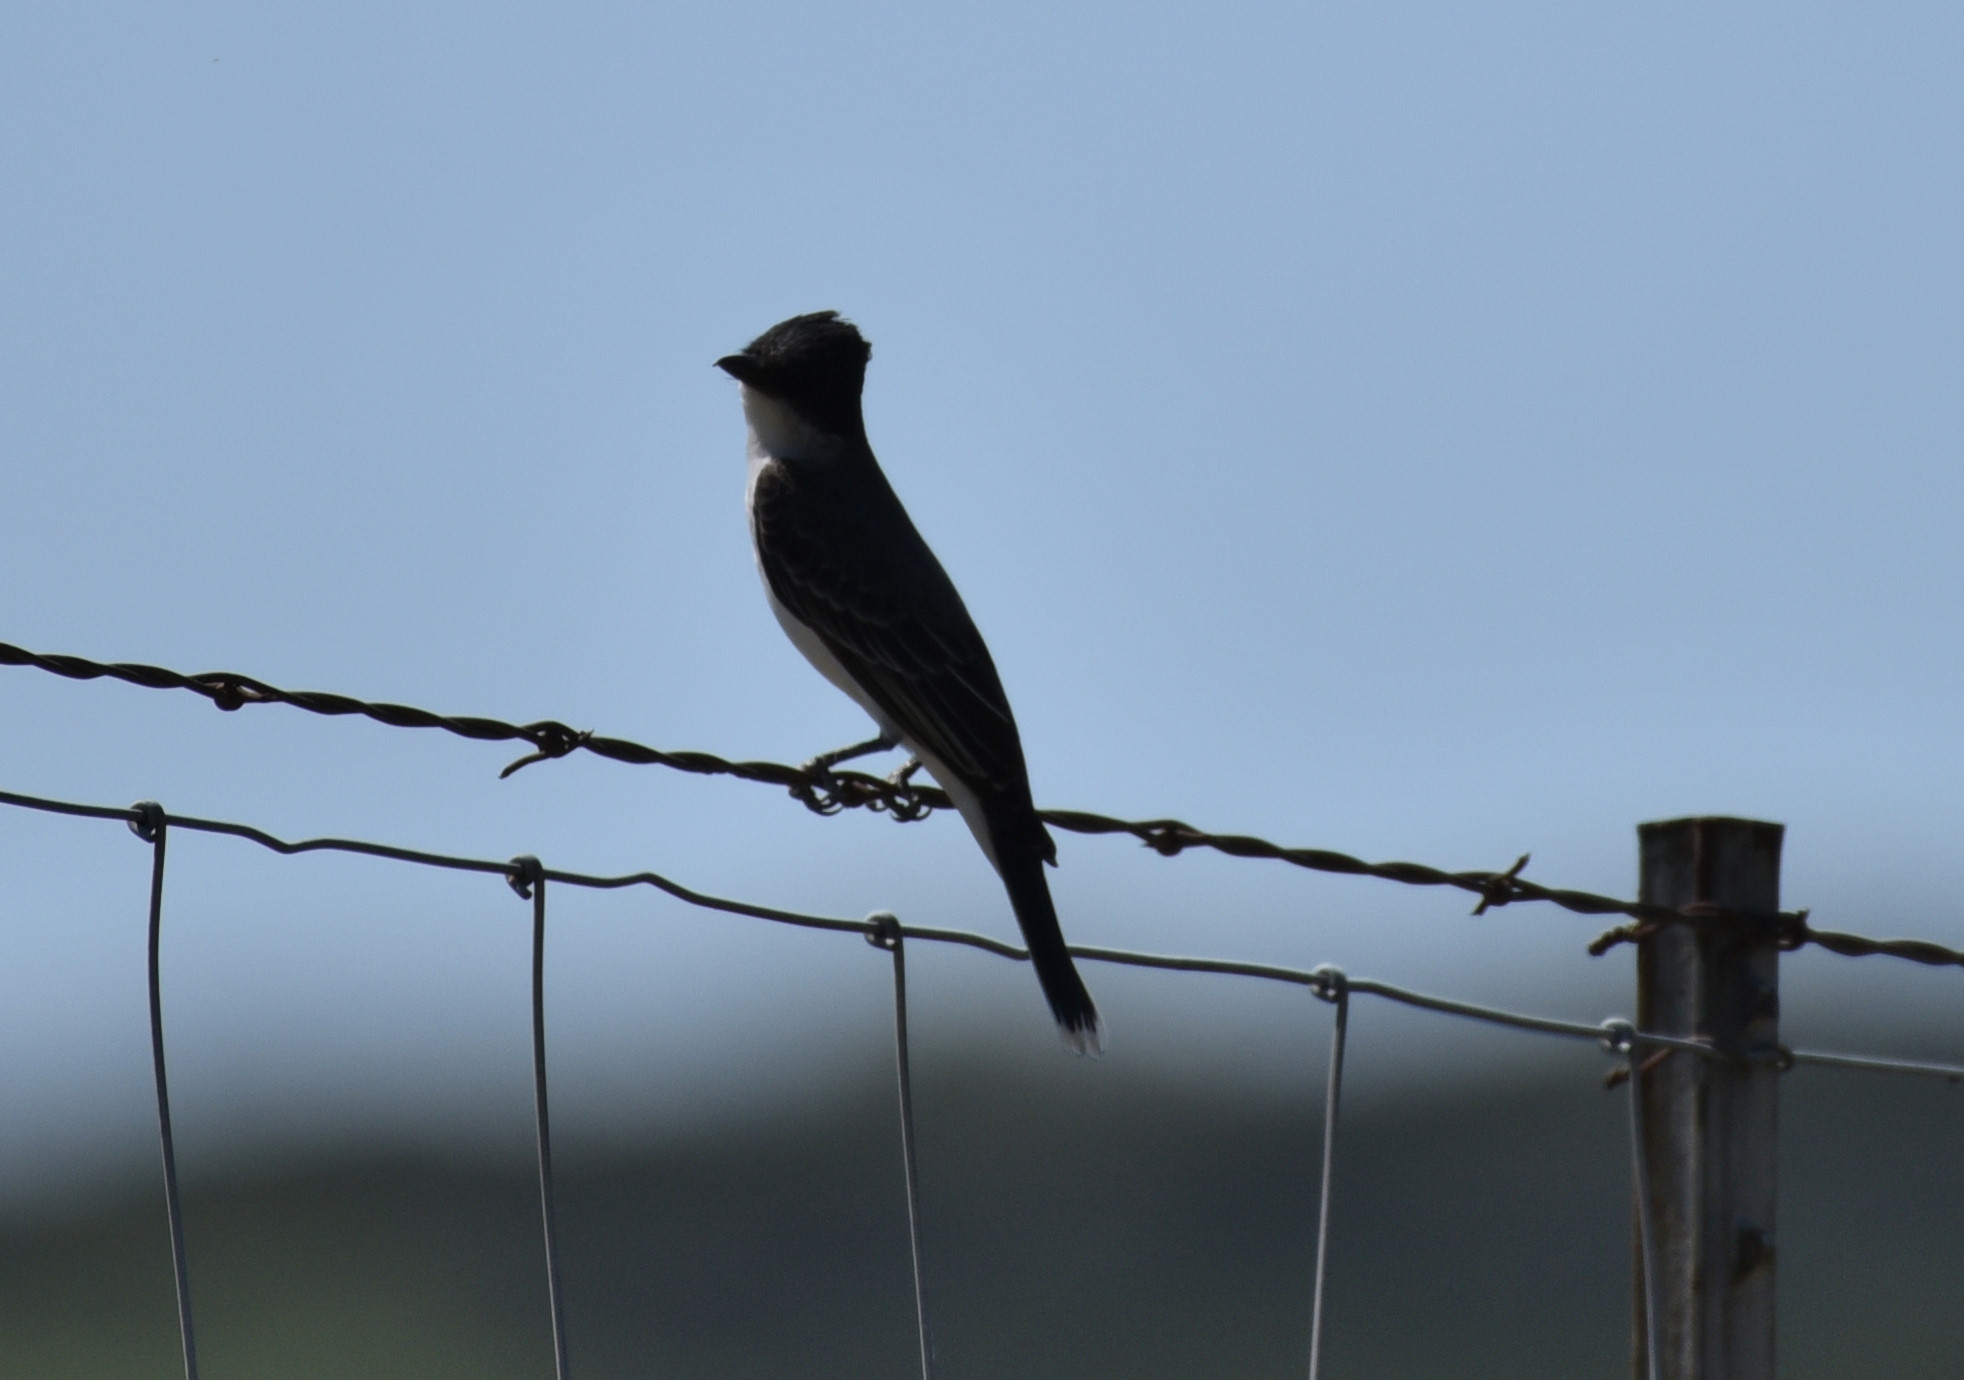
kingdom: Animalia
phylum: Chordata
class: Aves
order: Passeriformes
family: Tyrannidae
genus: Tyrannus
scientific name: Tyrannus tyrannus
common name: Eastern kingbird
